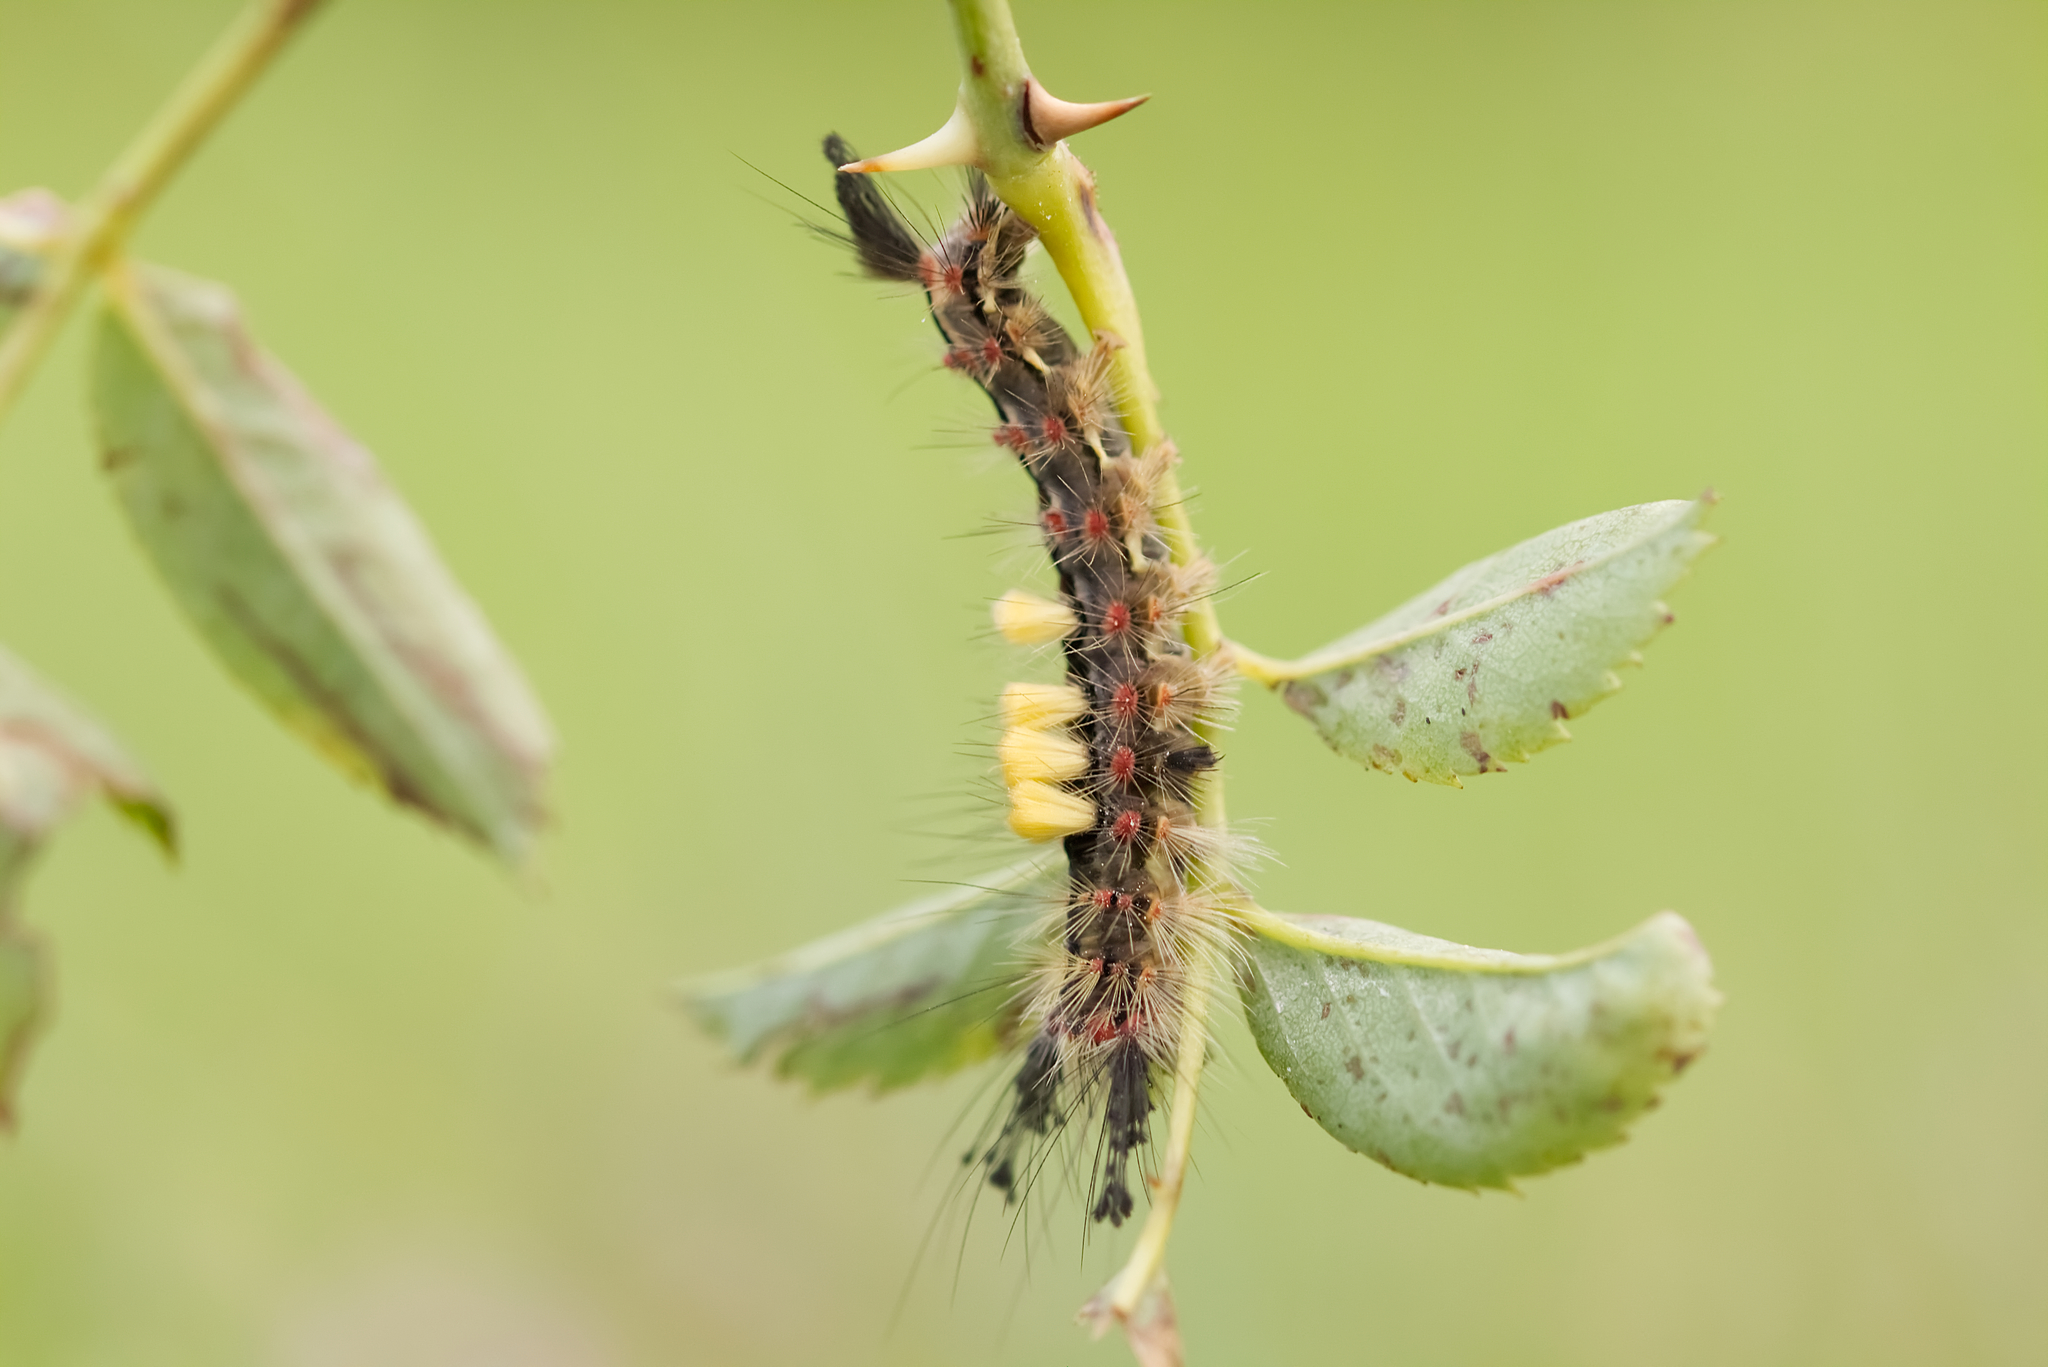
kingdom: Animalia
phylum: Arthropoda
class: Insecta
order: Lepidoptera
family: Erebidae
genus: Orgyia
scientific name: Orgyia antiqua
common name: Vapourer
